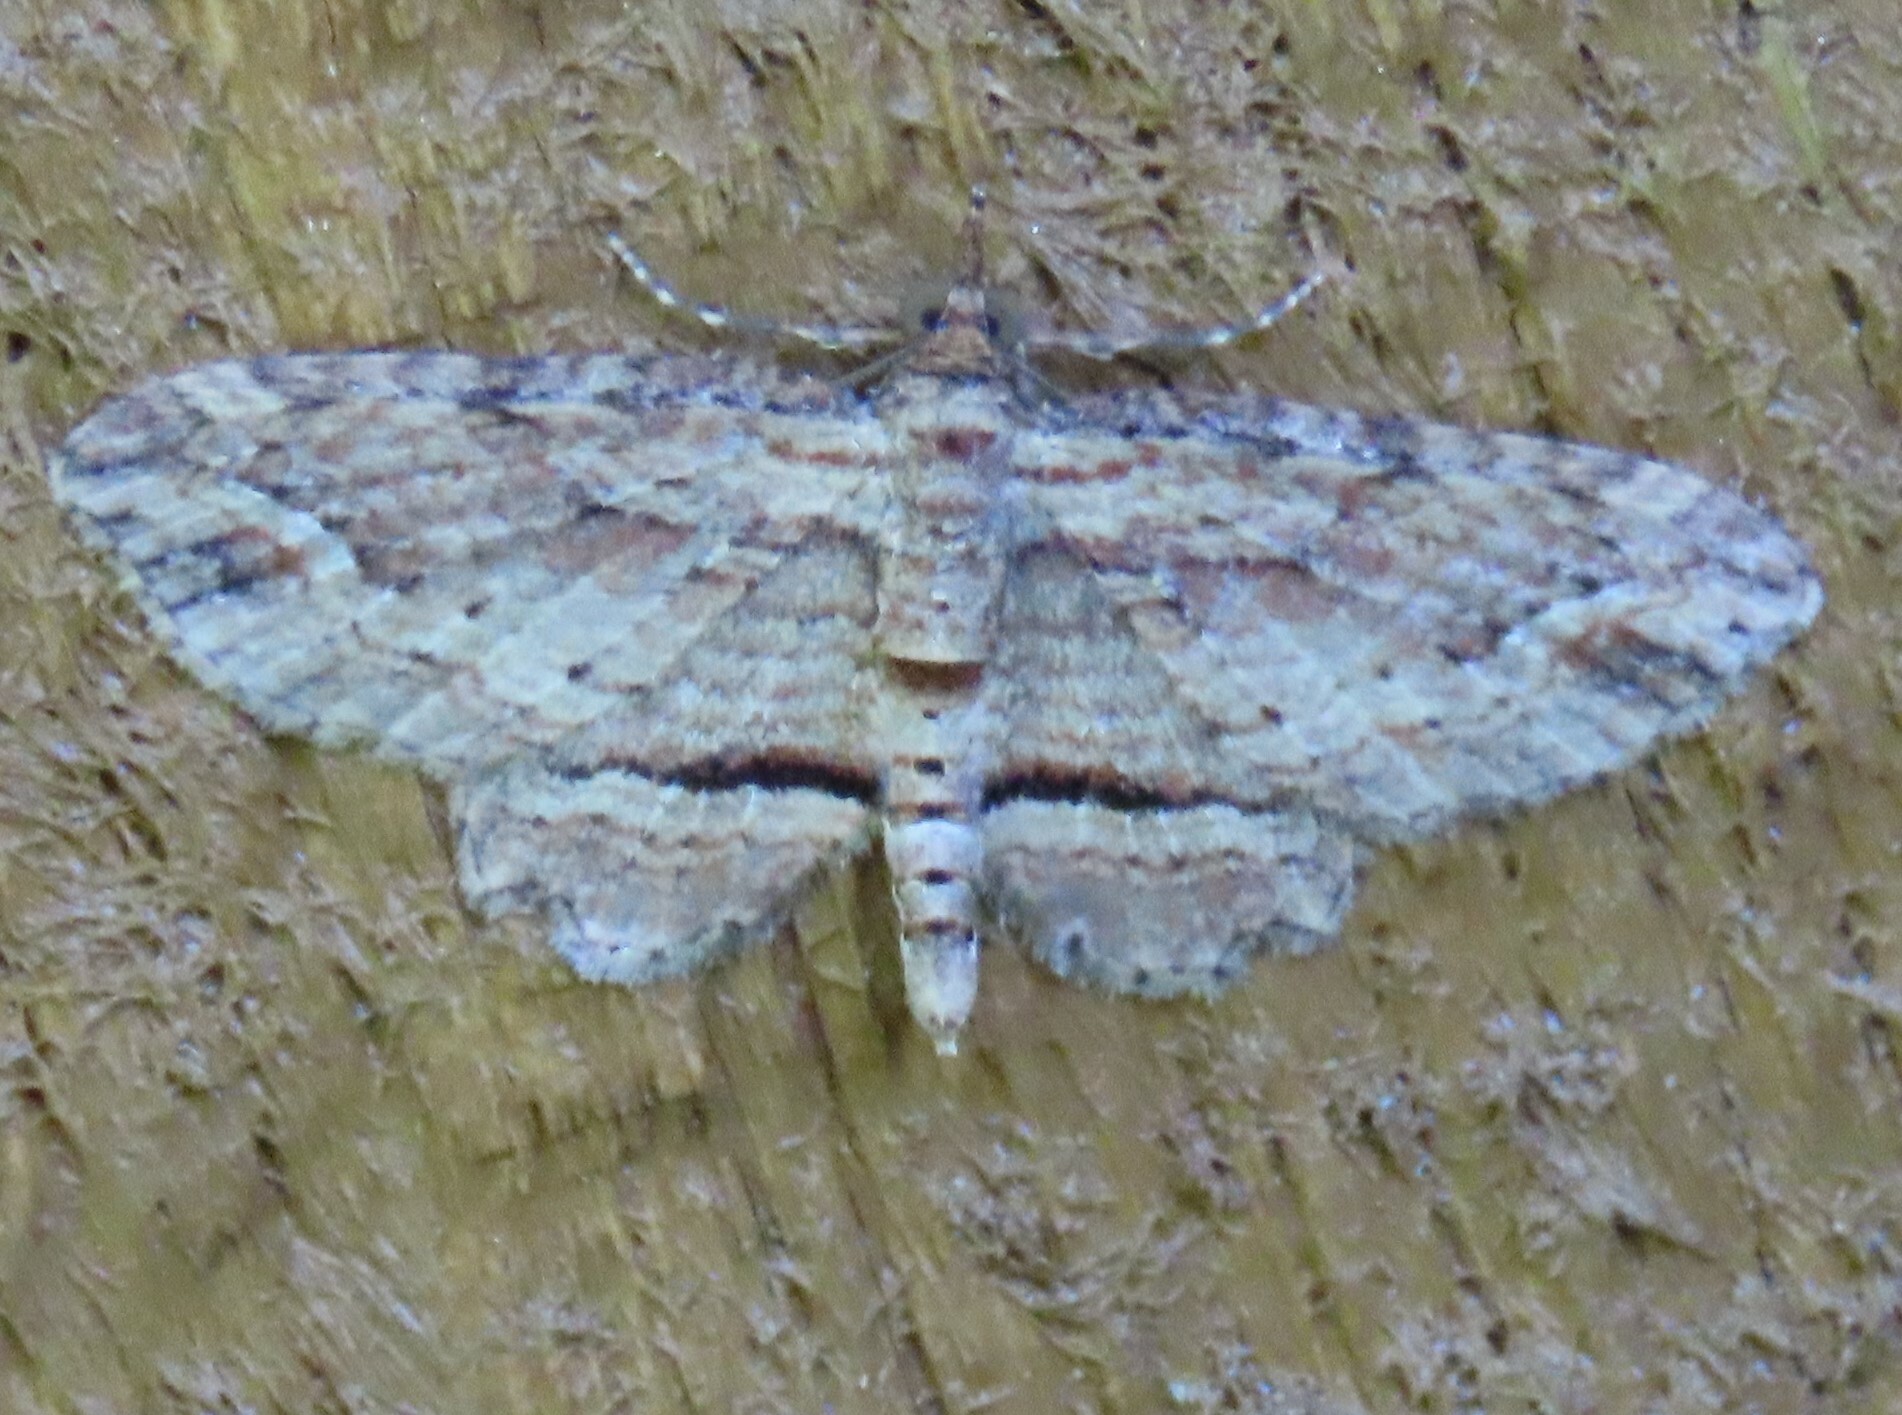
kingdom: Animalia
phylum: Arthropoda
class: Insecta
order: Lepidoptera
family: Geometridae
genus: Chloroclystis
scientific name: Chloroclystis filata
